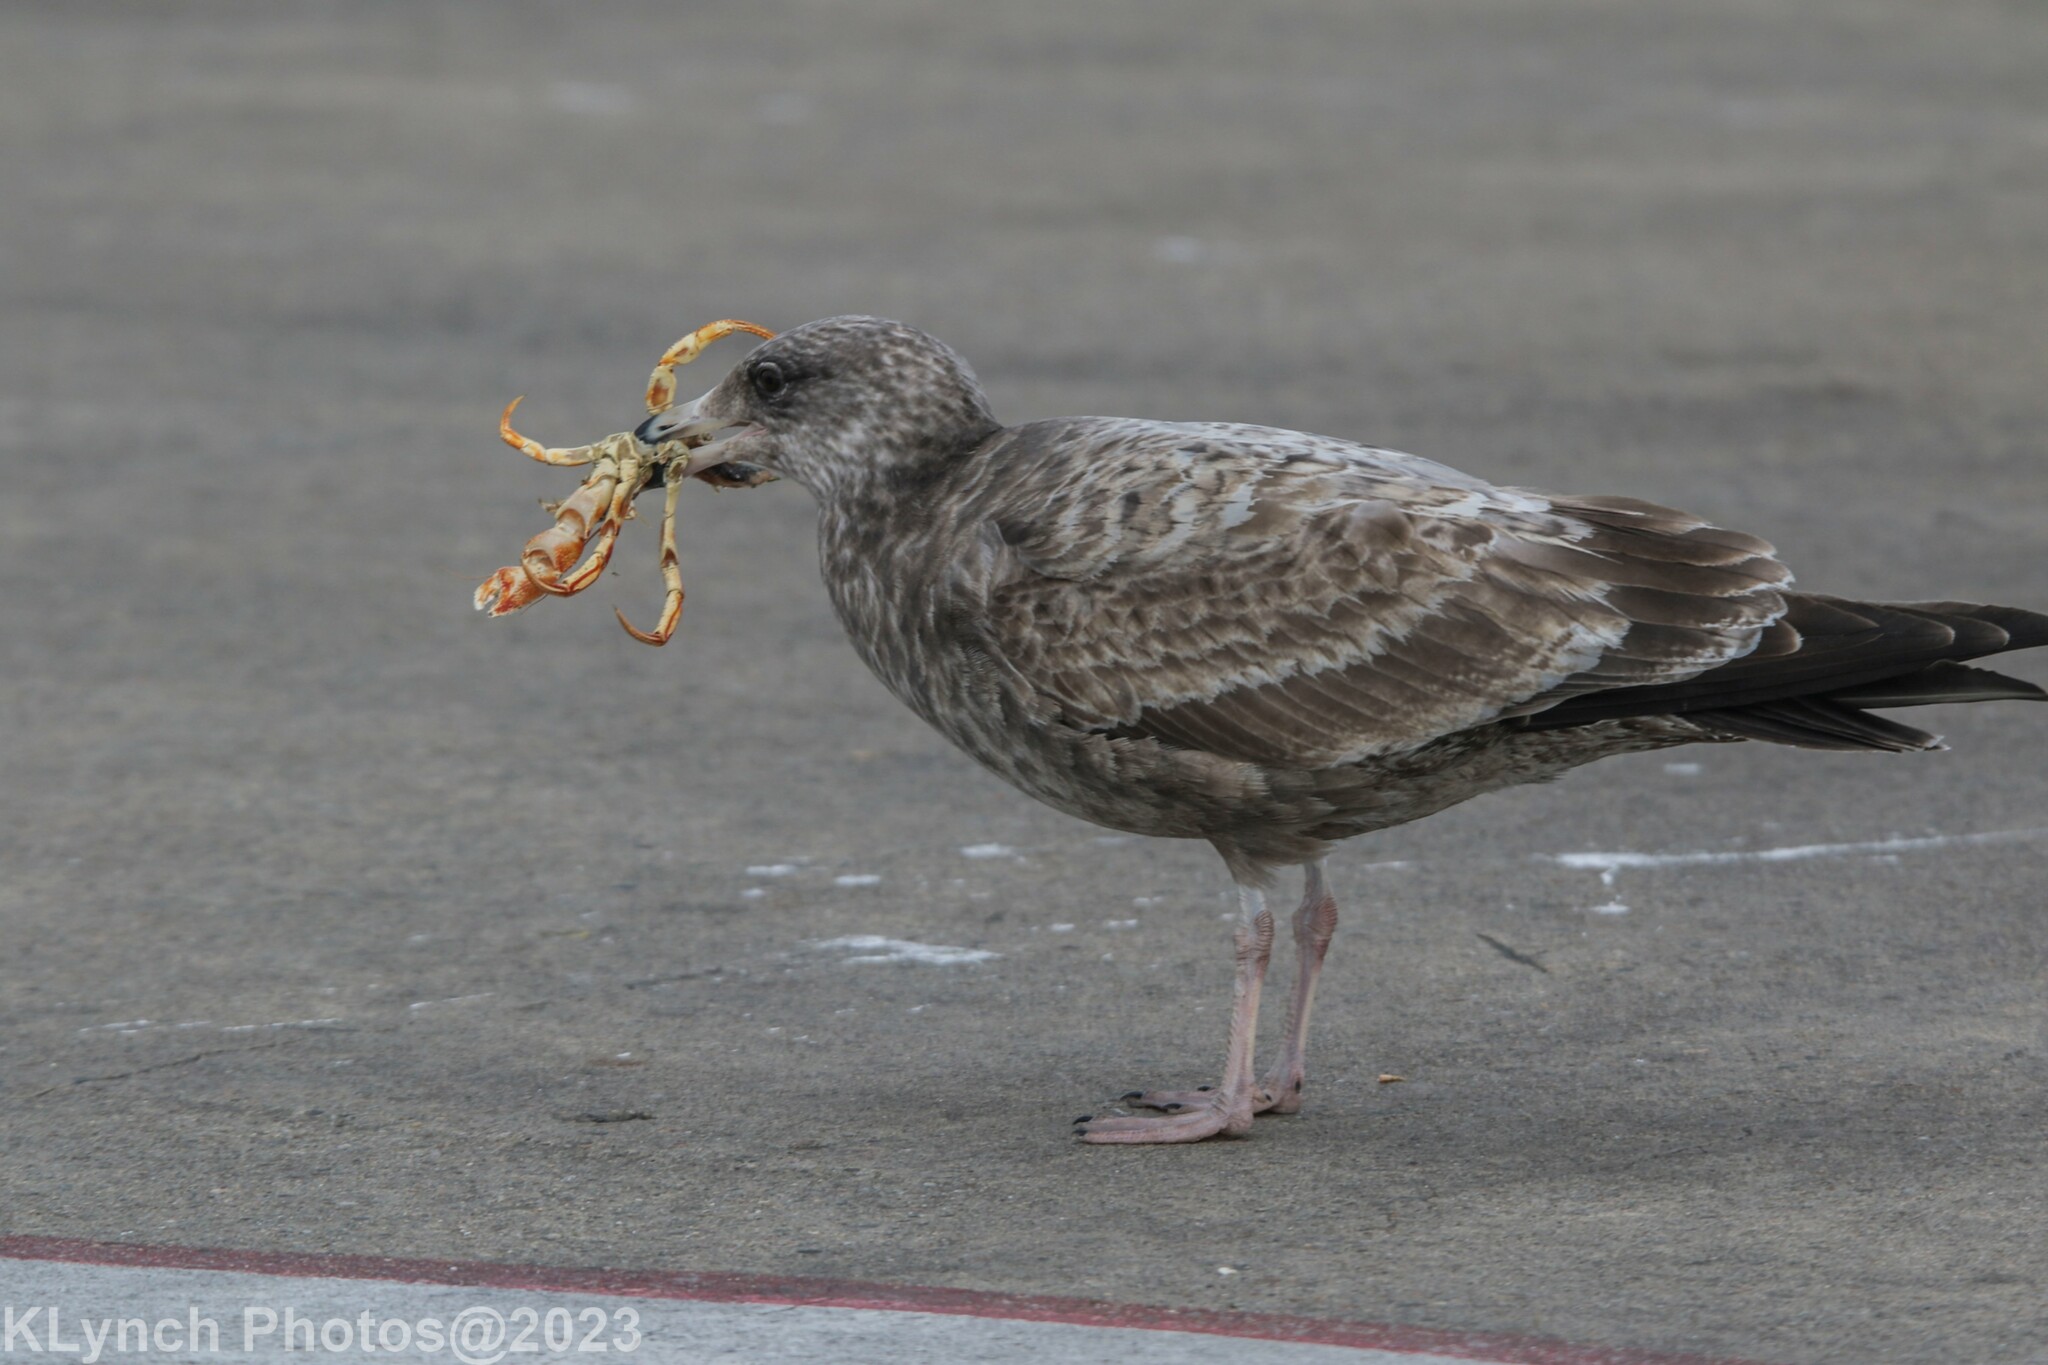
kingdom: Animalia
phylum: Chordata
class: Aves
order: Charadriiformes
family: Laridae
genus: Larus
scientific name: Larus argentatus
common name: Herring gull
